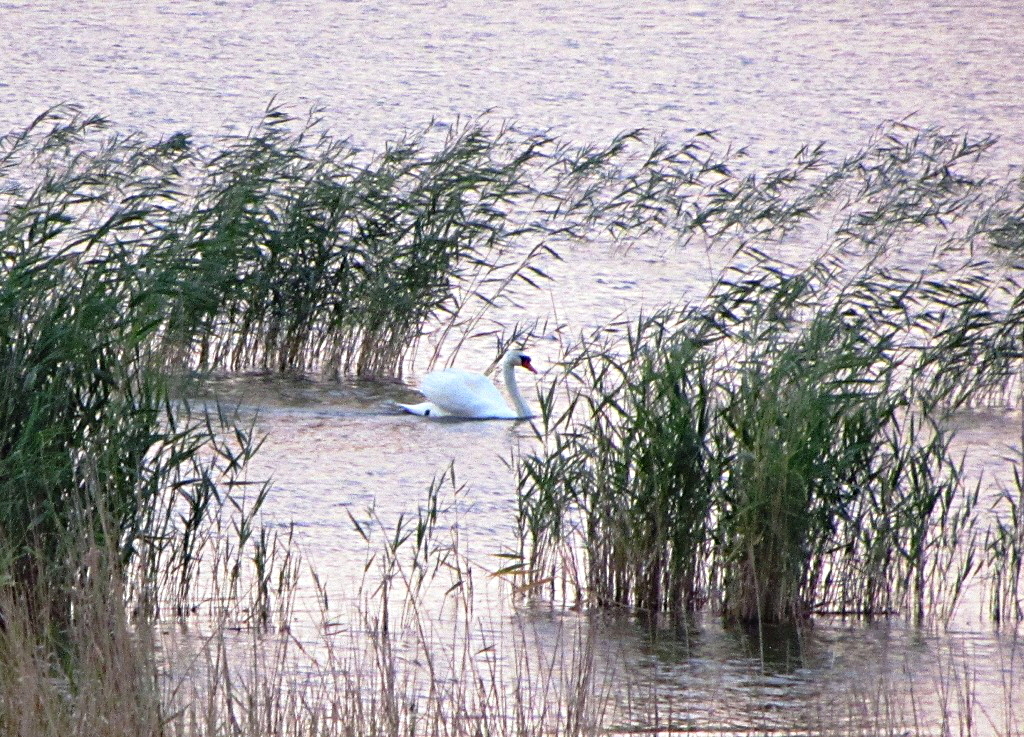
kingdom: Animalia
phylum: Chordata
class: Aves
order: Anseriformes
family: Anatidae
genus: Cygnus
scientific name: Cygnus olor
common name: Mute swan
